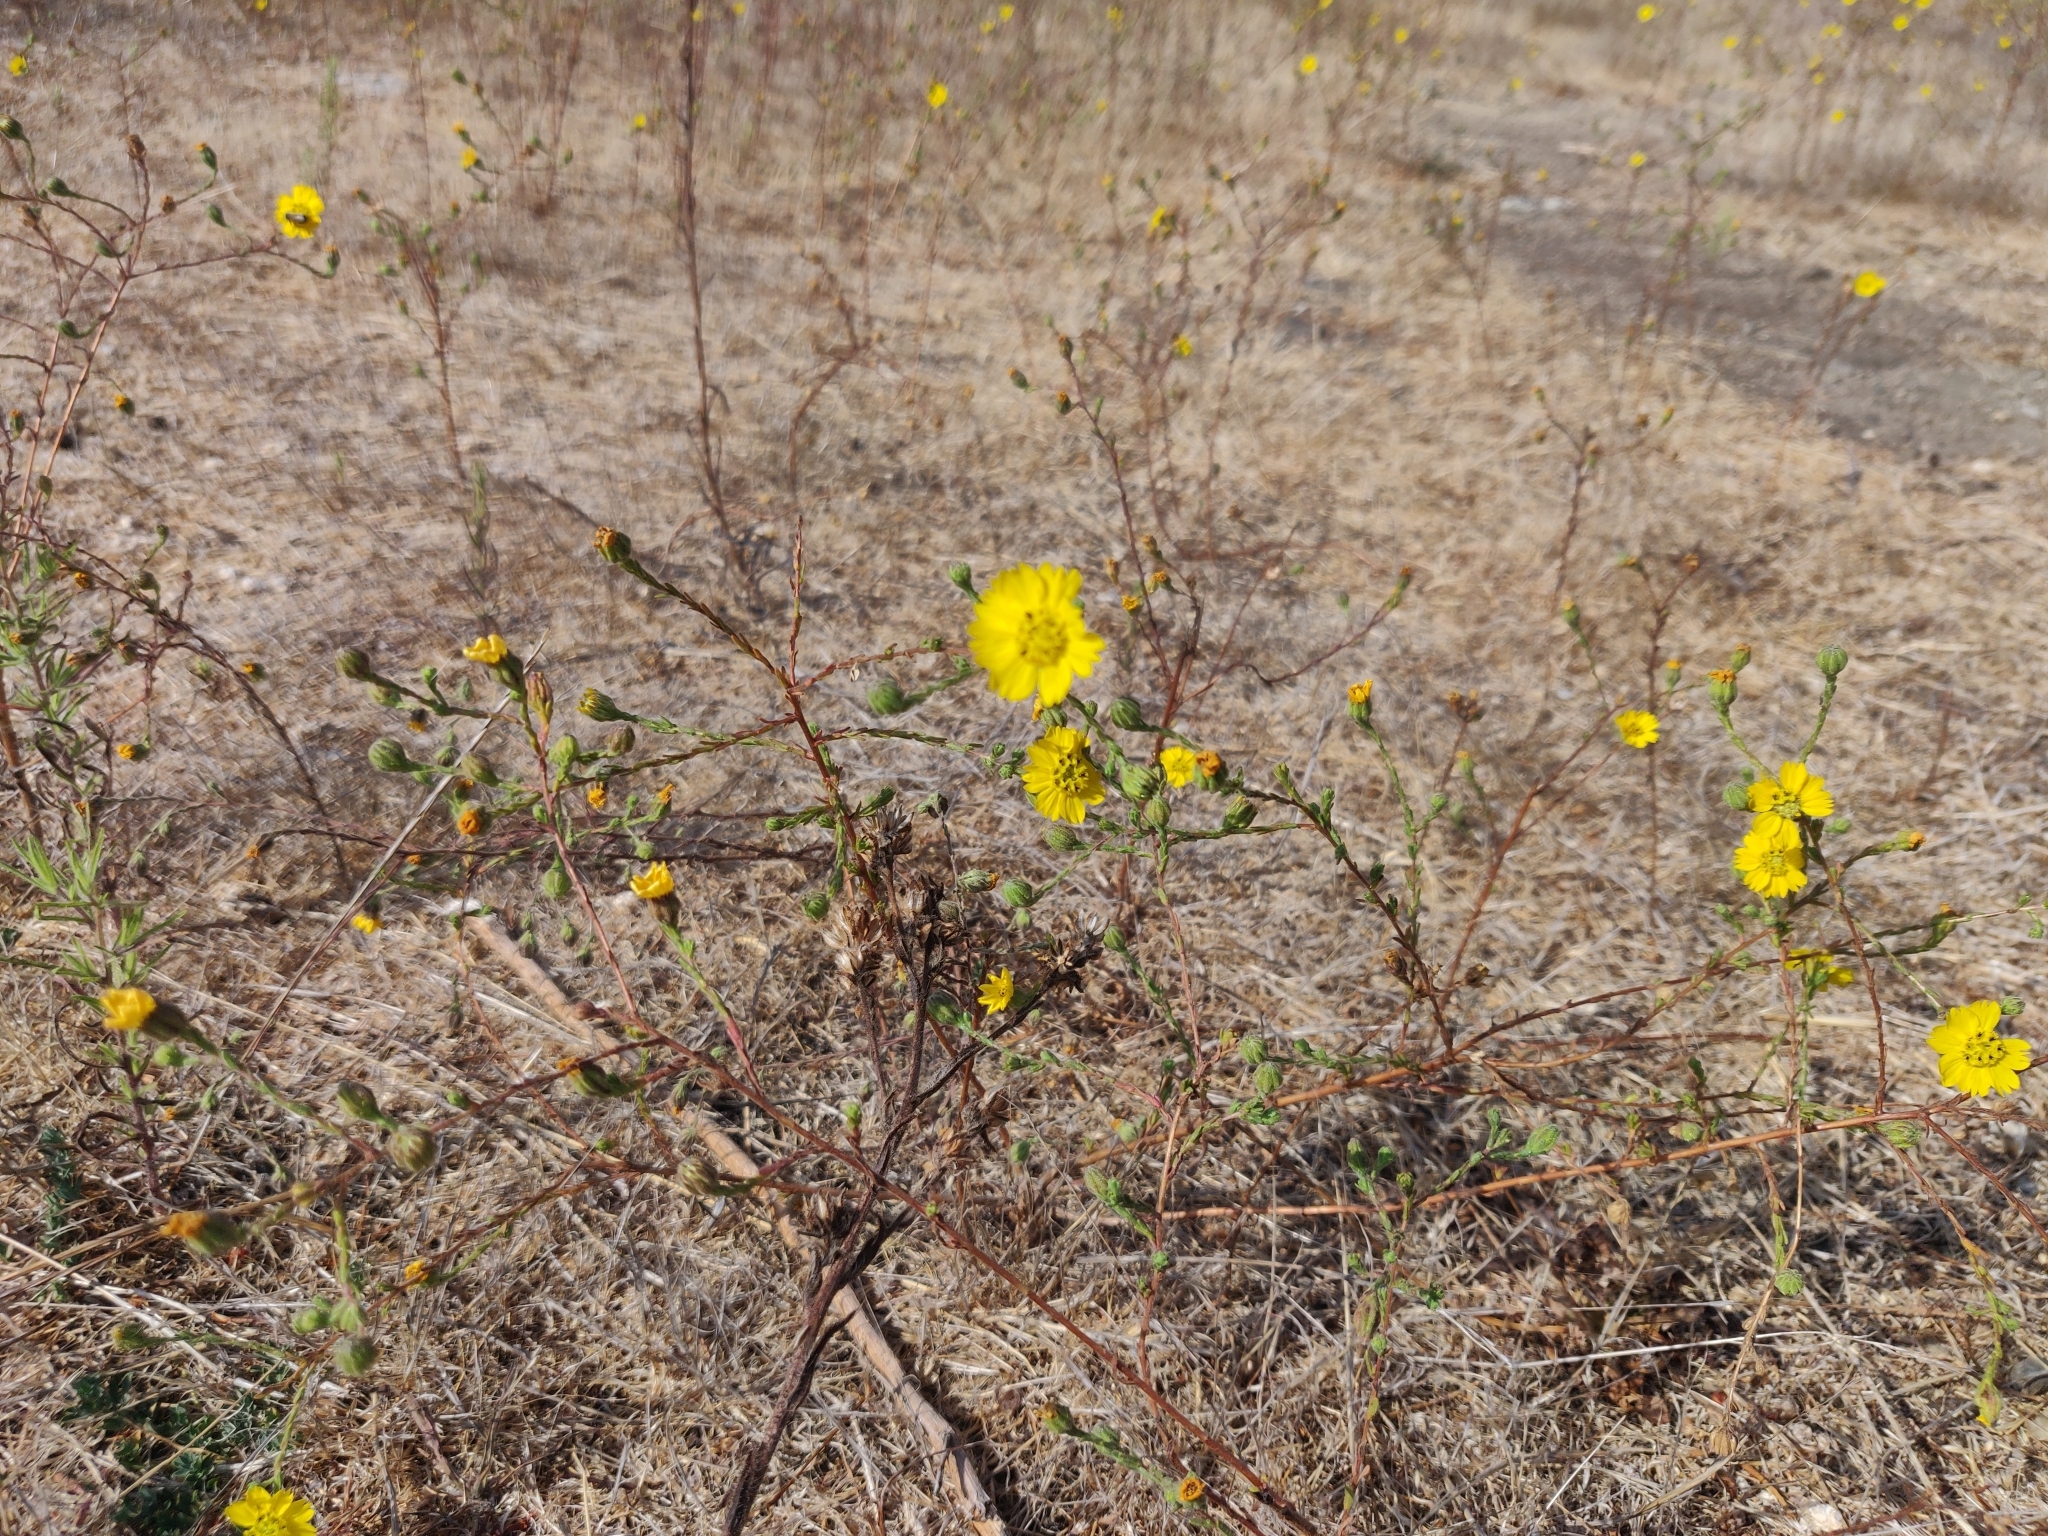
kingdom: Plantae
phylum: Tracheophyta
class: Magnoliopsida
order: Asterales
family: Asteraceae
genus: Deinandra
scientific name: Deinandra paniculata
